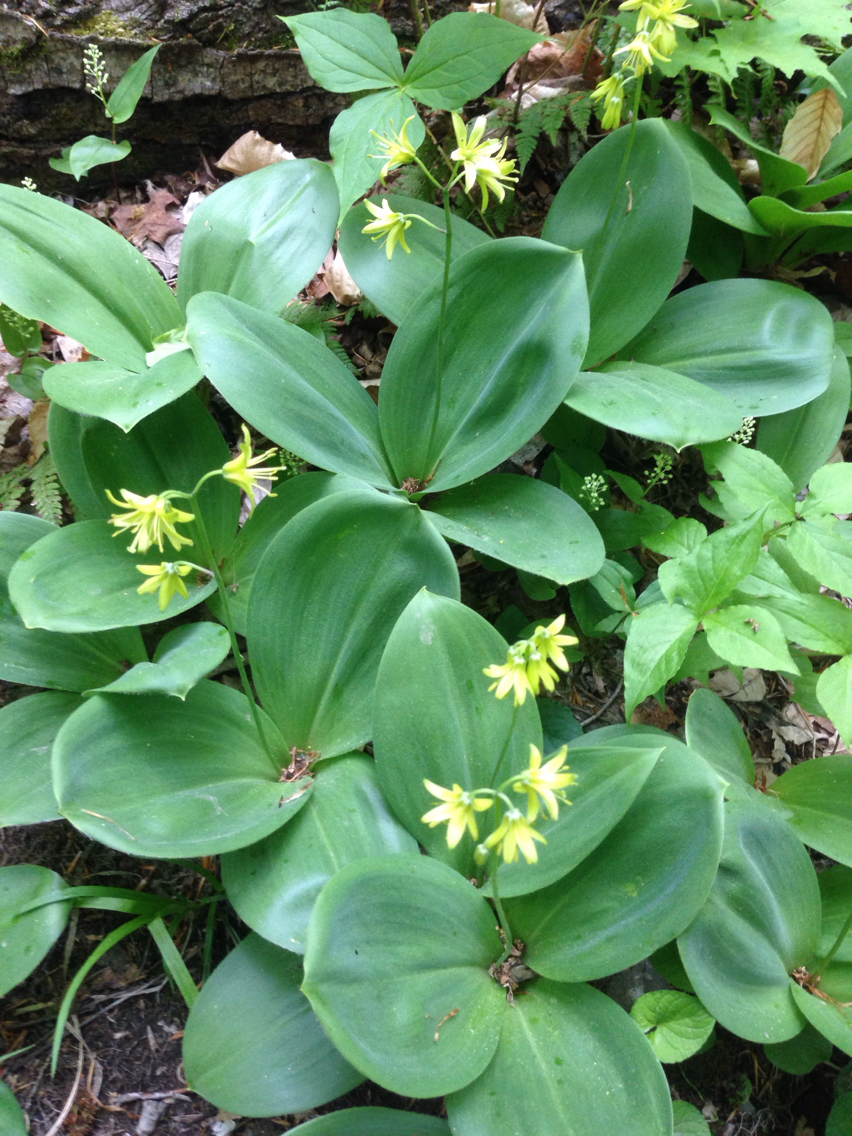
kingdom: Plantae
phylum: Tracheophyta
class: Liliopsida
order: Liliales
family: Liliaceae
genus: Clintonia
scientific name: Clintonia borealis
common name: Yellow clintonia
